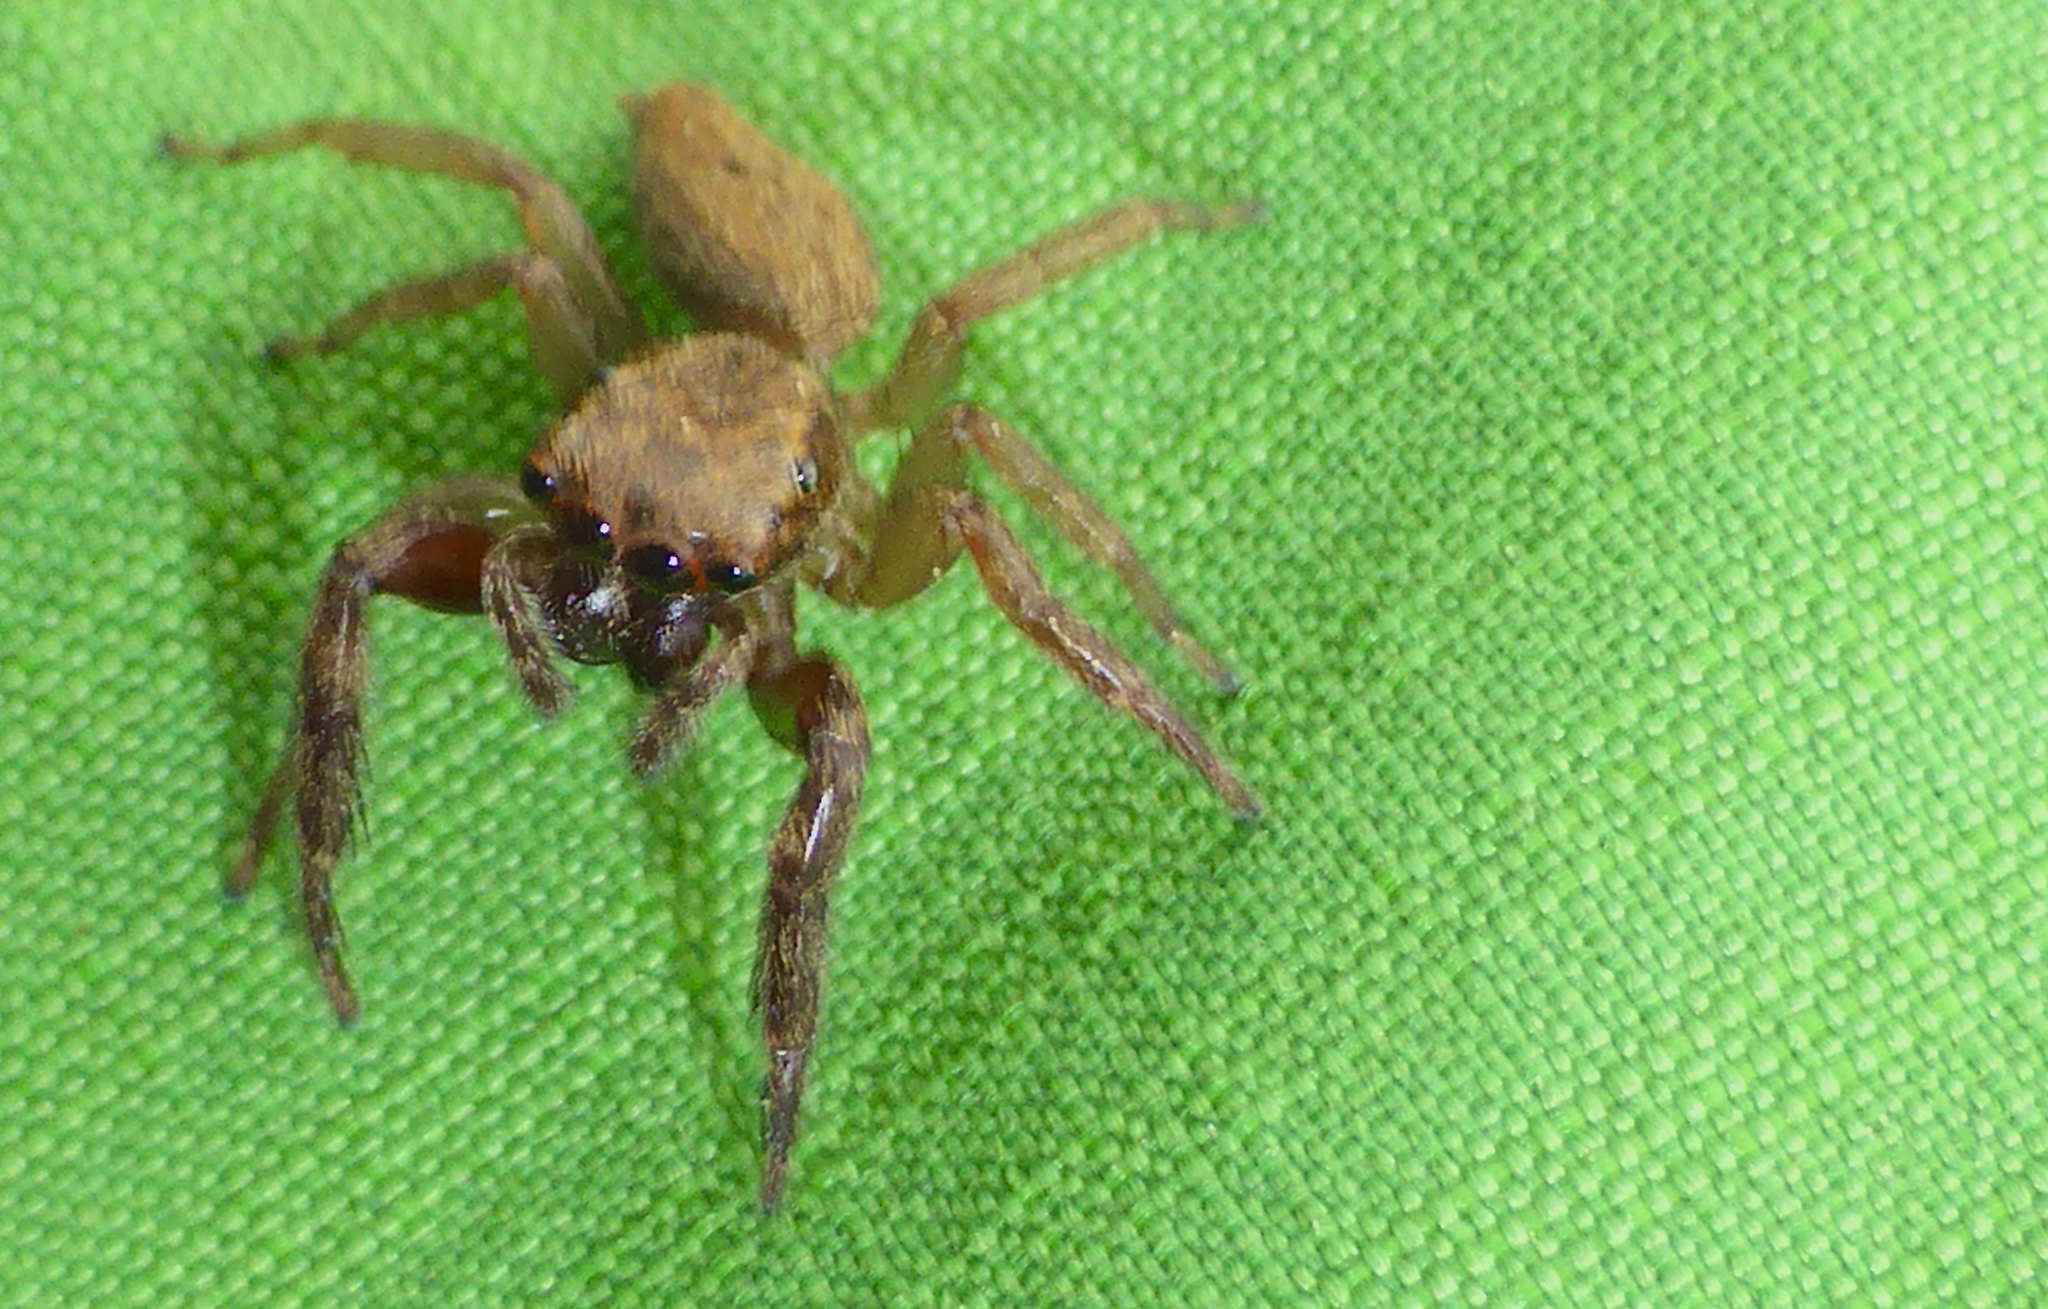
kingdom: Animalia
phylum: Arthropoda
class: Arachnida
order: Araneae
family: Salticidae
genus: Trite
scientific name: Trite auricoma
